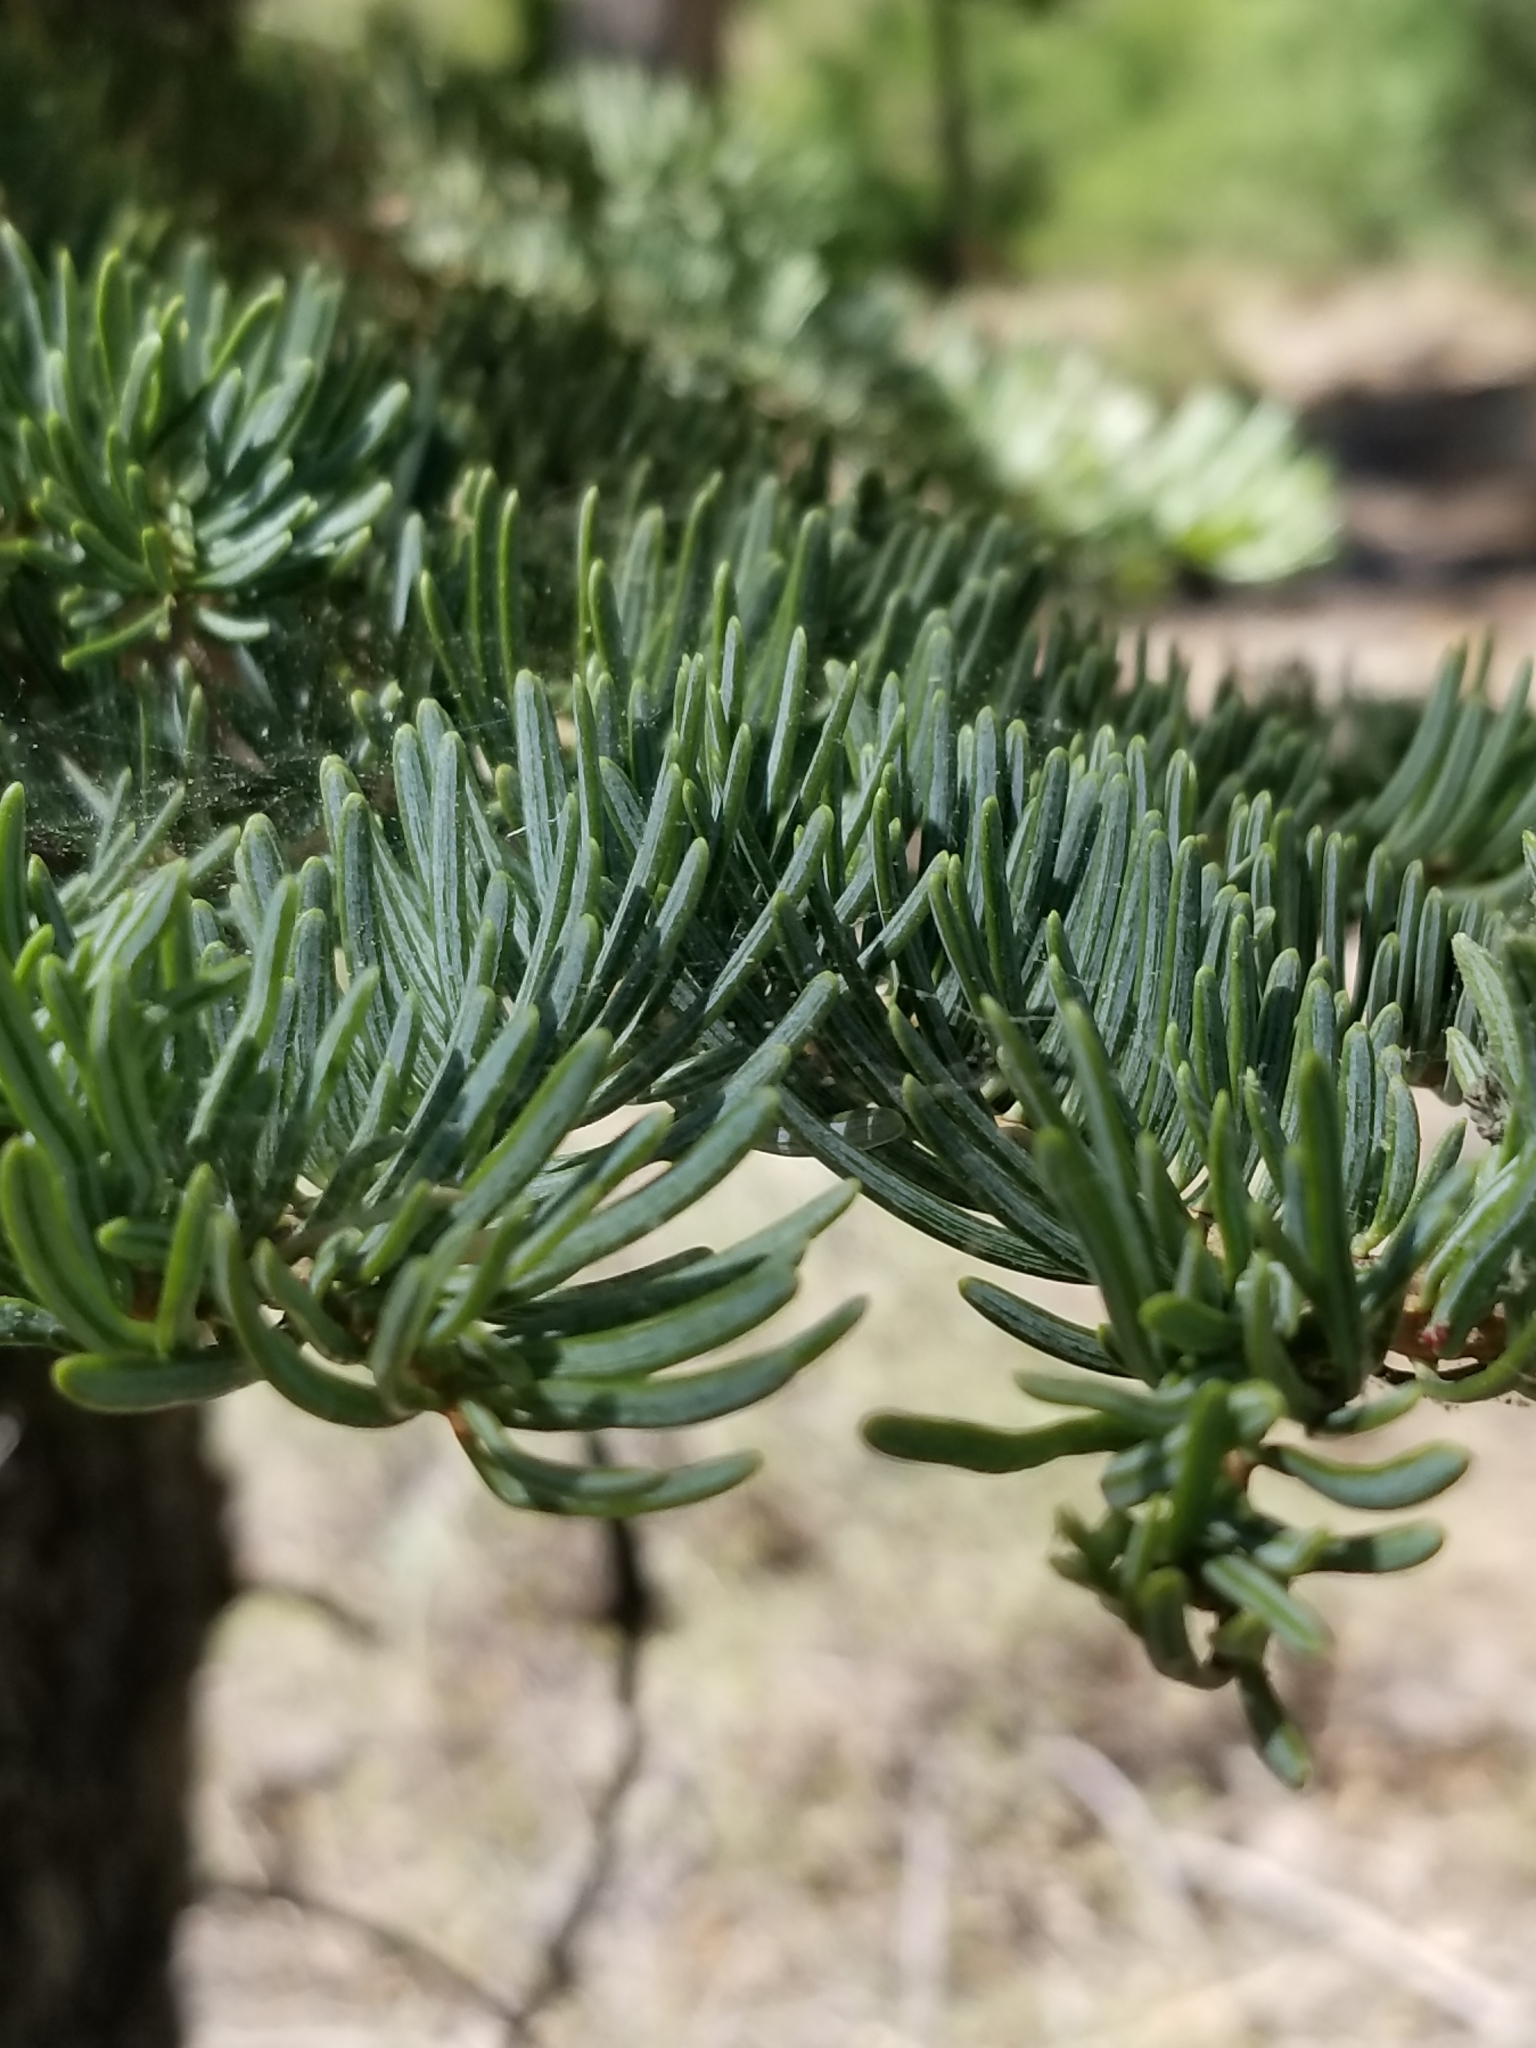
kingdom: Plantae
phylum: Tracheophyta
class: Pinopsida
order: Pinales
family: Pinaceae
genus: Abies
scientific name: Abies concolor
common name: Colorado fir
